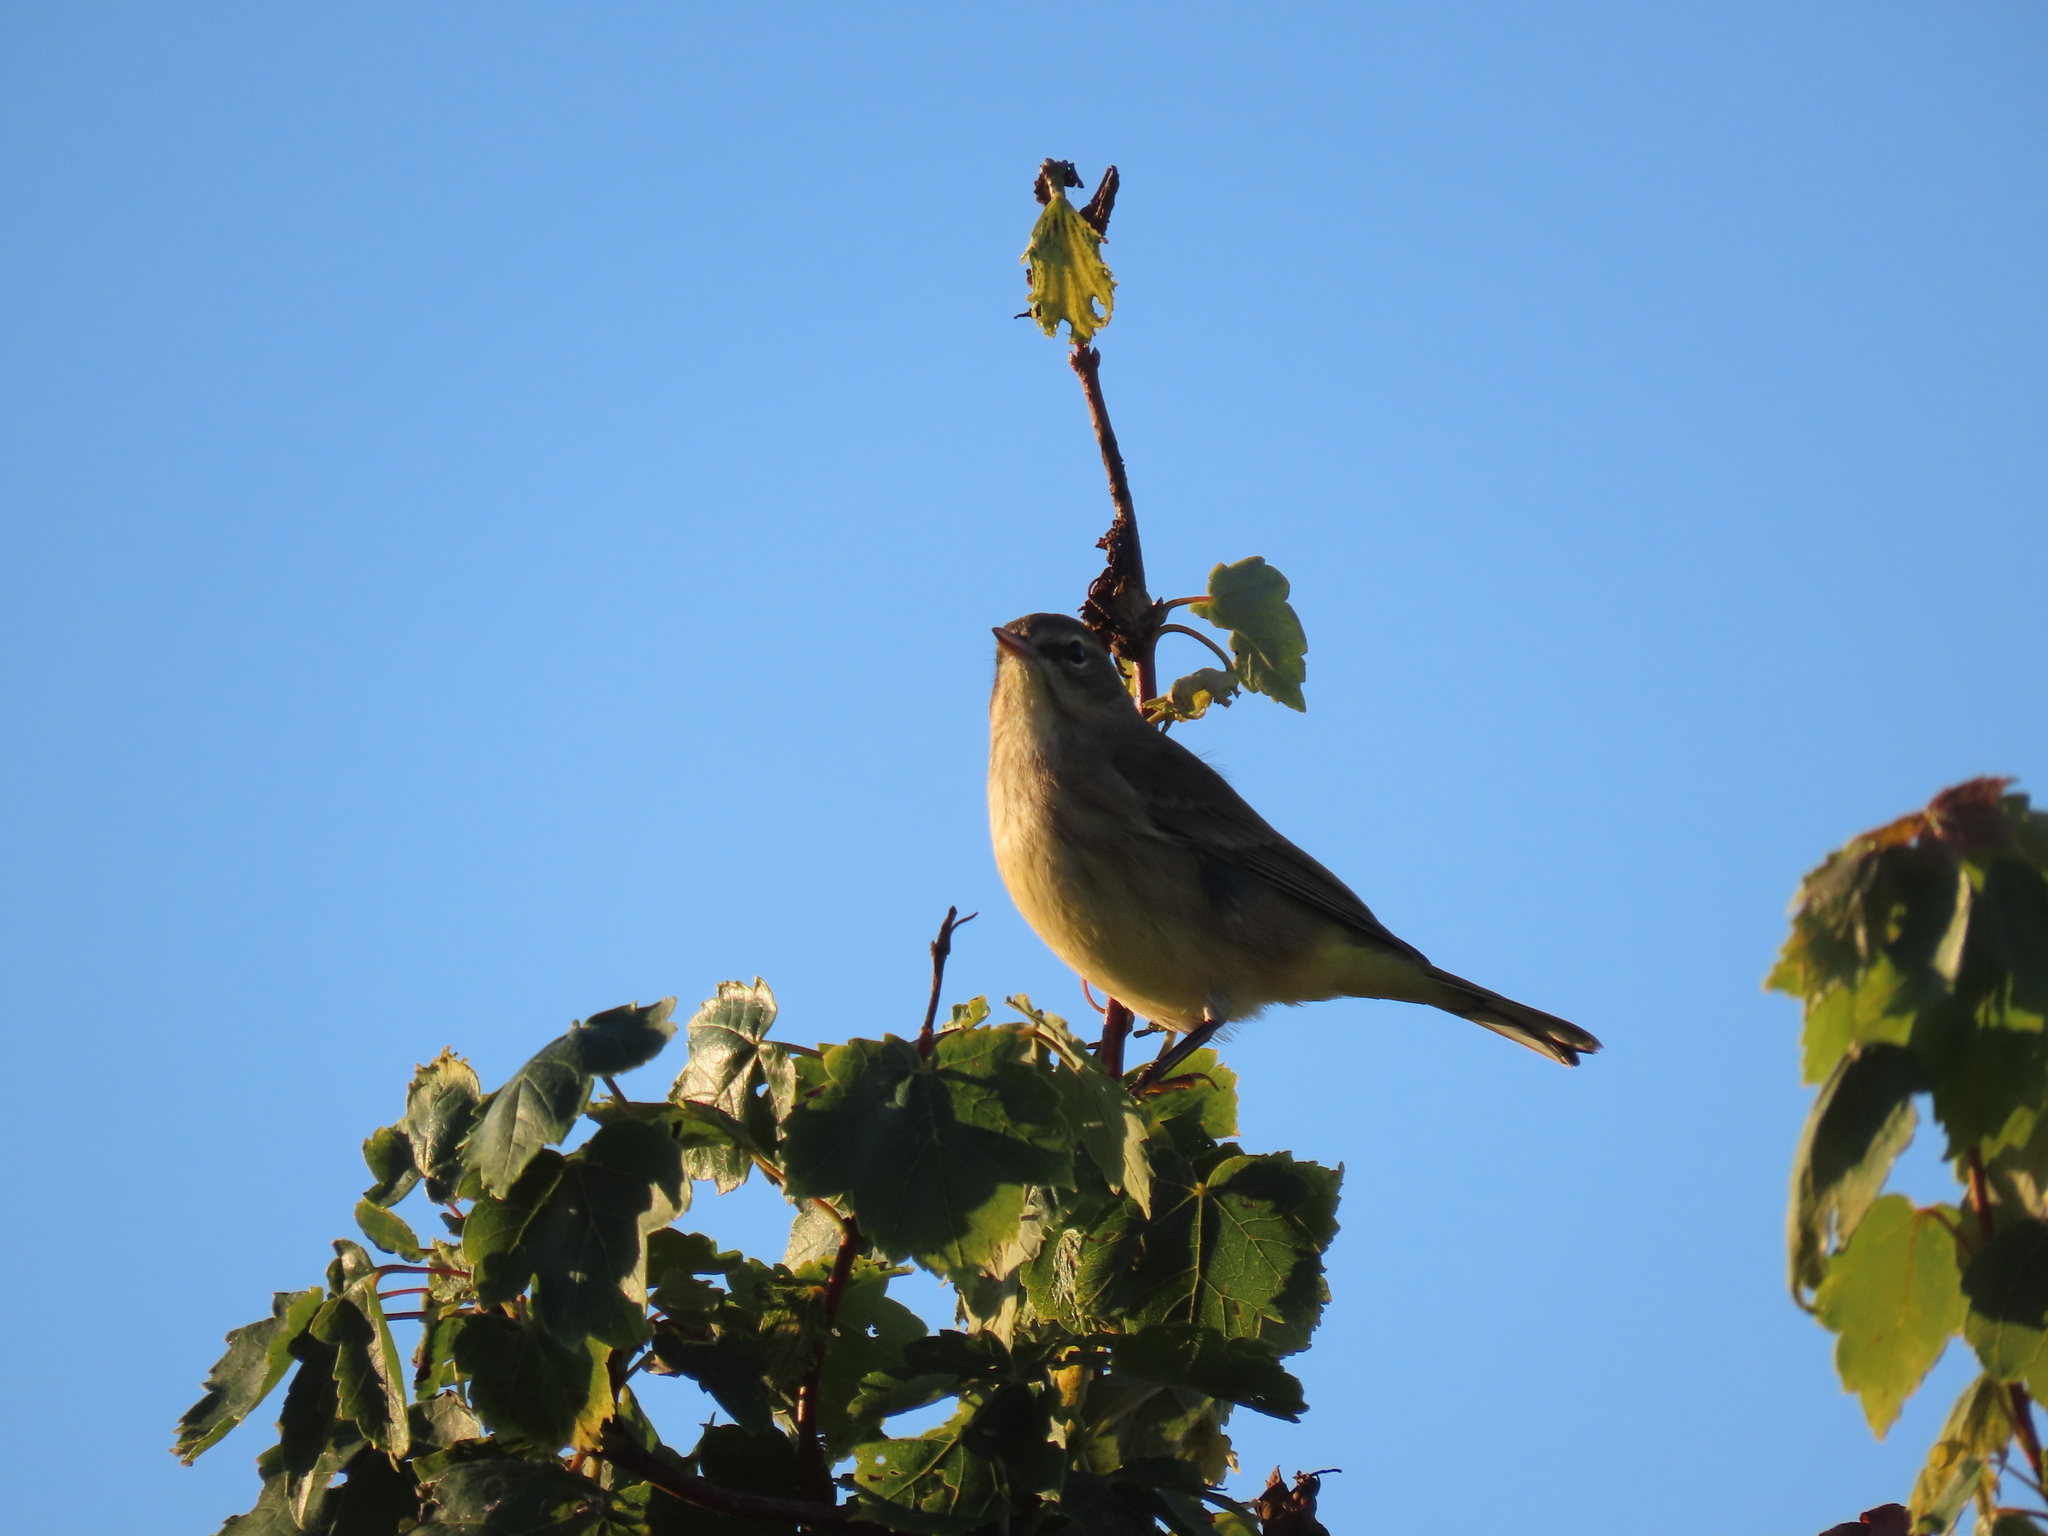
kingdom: Animalia
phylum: Chordata
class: Aves
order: Passeriformes
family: Parulidae
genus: Setophaga
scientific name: Setophaga palmarum
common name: Palm warbler
